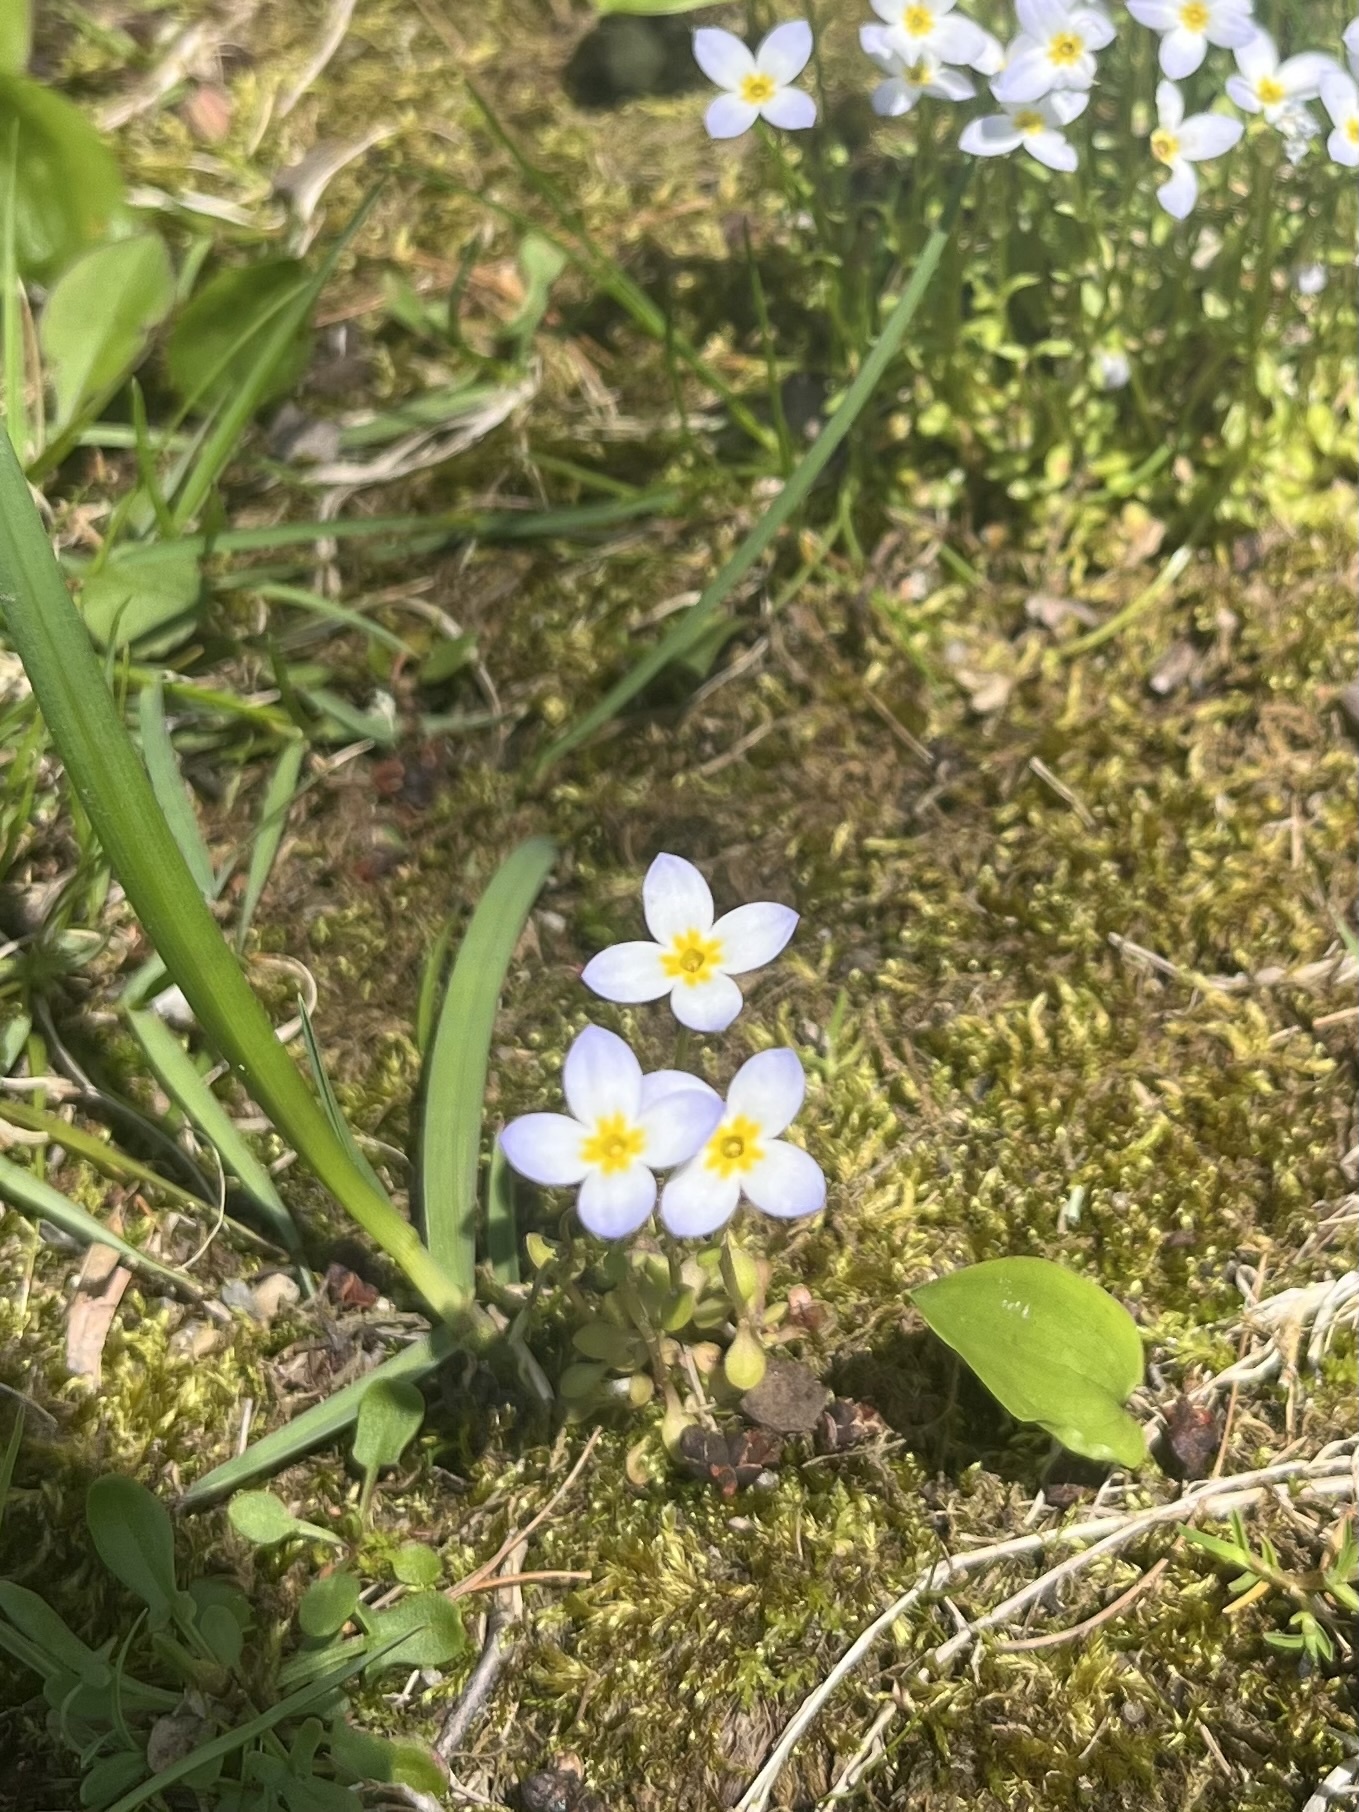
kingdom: Plantae
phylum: Tracheophyta
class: Magnoliopsida
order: Gentianales
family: Rubiaceae
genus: Houstonia
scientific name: Houstonia caerulea
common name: Bluets
